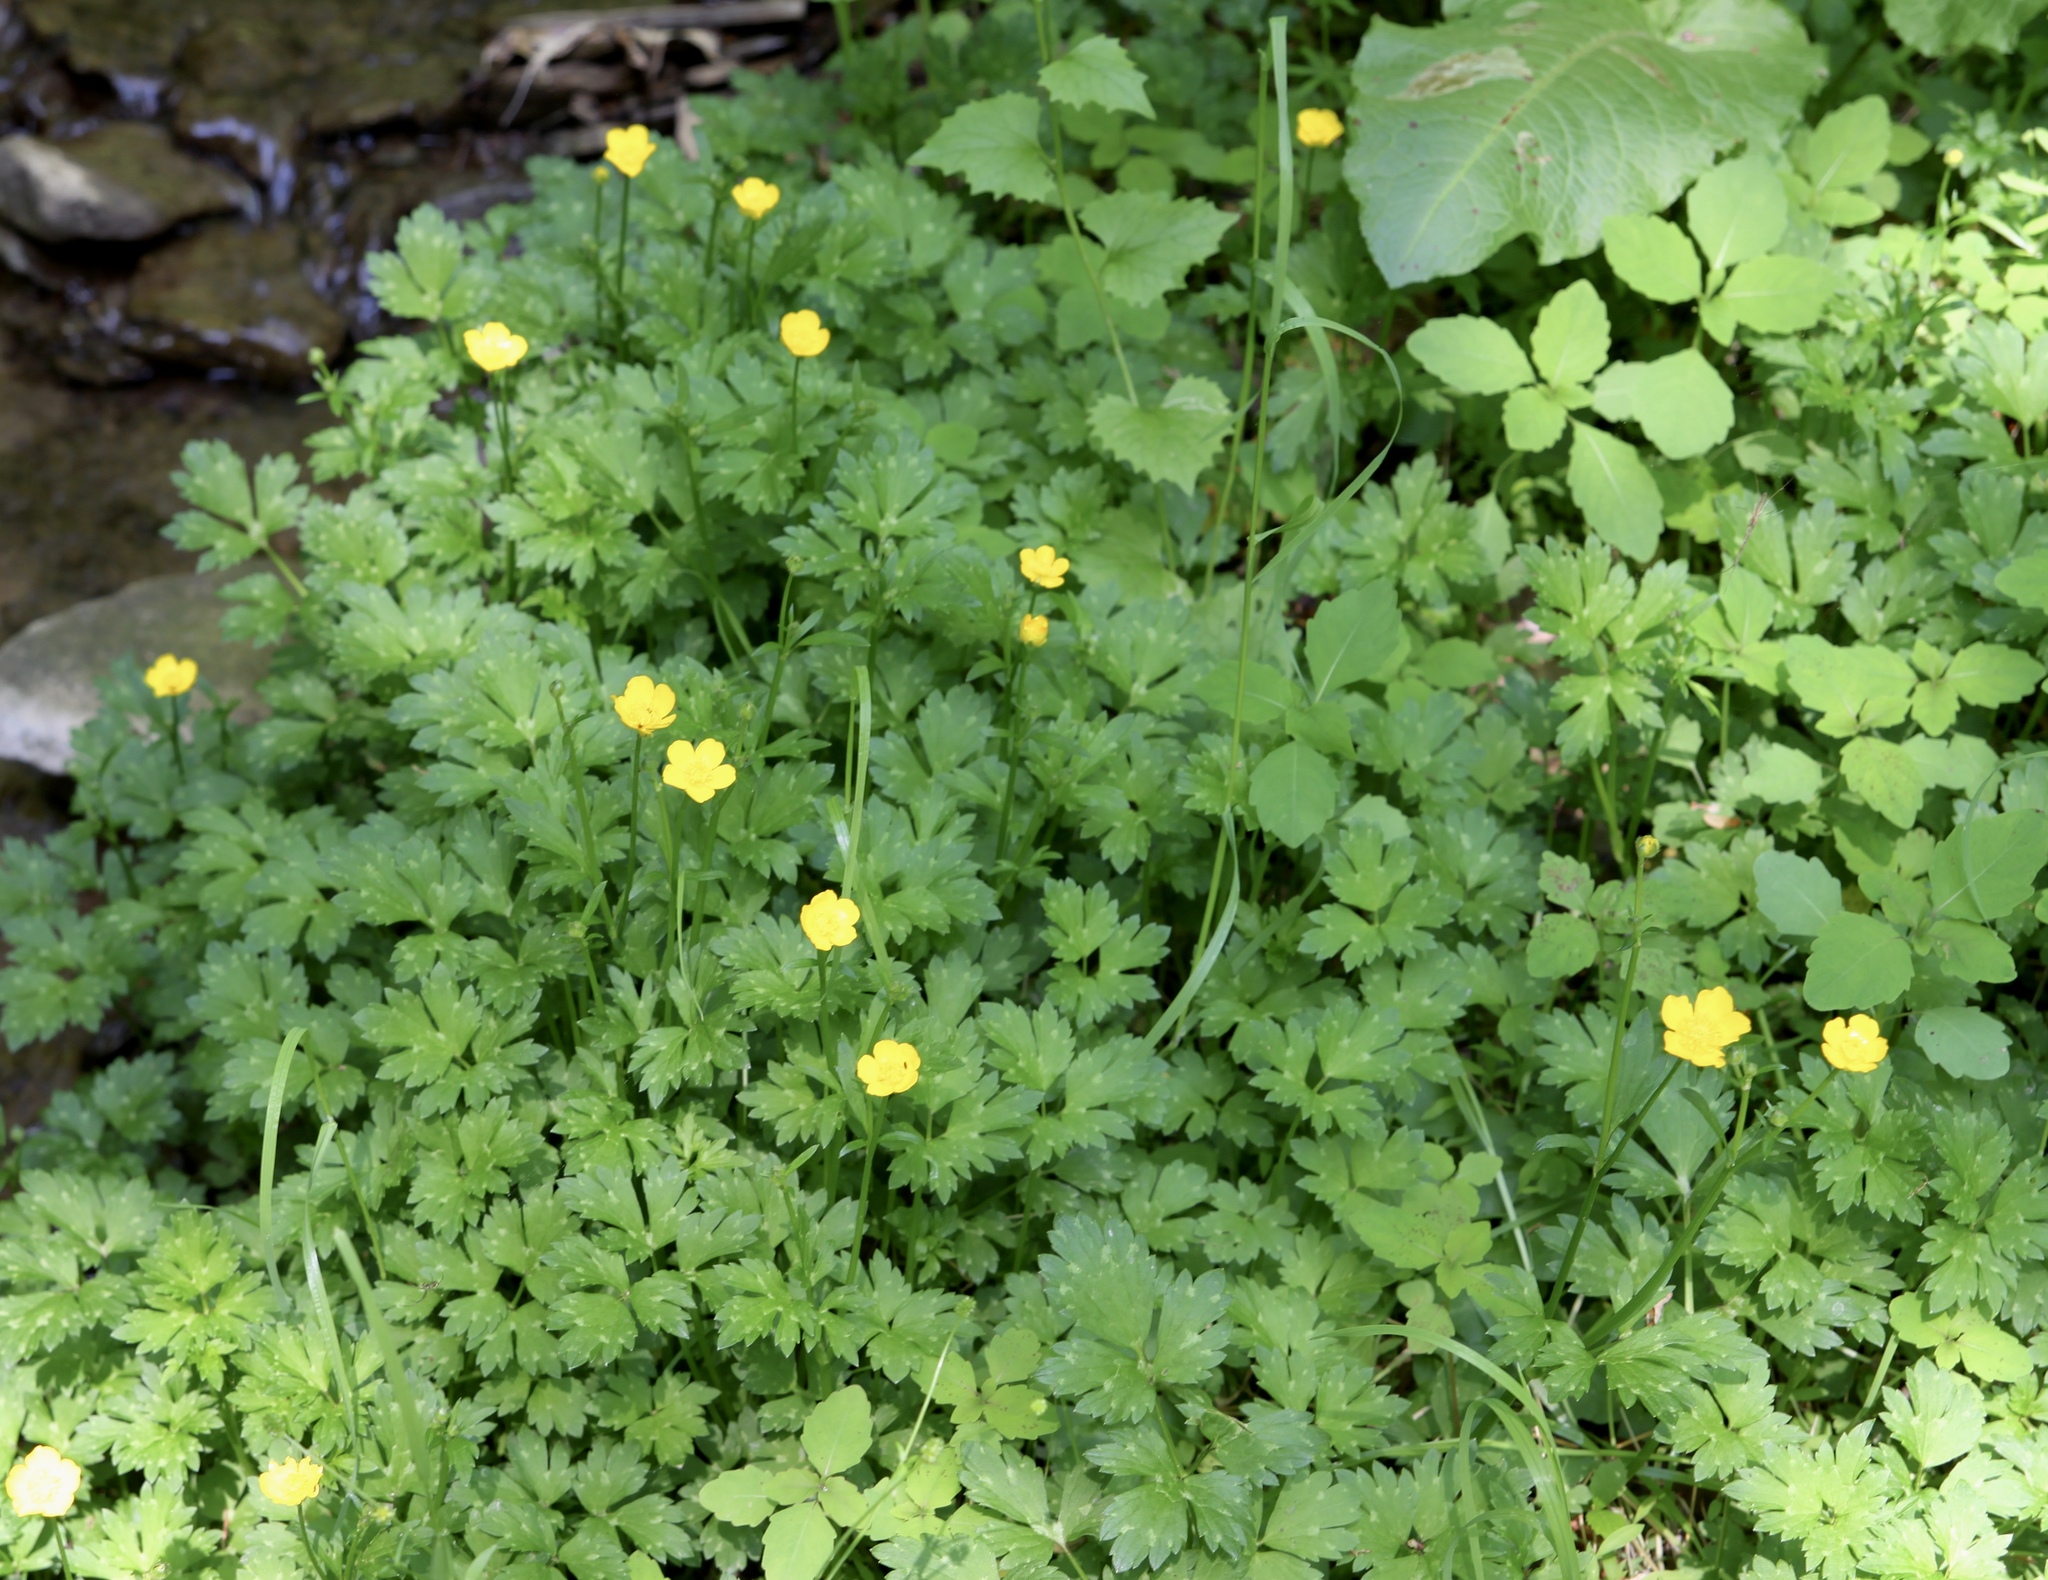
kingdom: Plantae
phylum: Tracheophyta
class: Magnoliopsida
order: Ranunculales
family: Ranunculaceae
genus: Ranunculus
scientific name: Ranunculus repens
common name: Creeping buttercup
